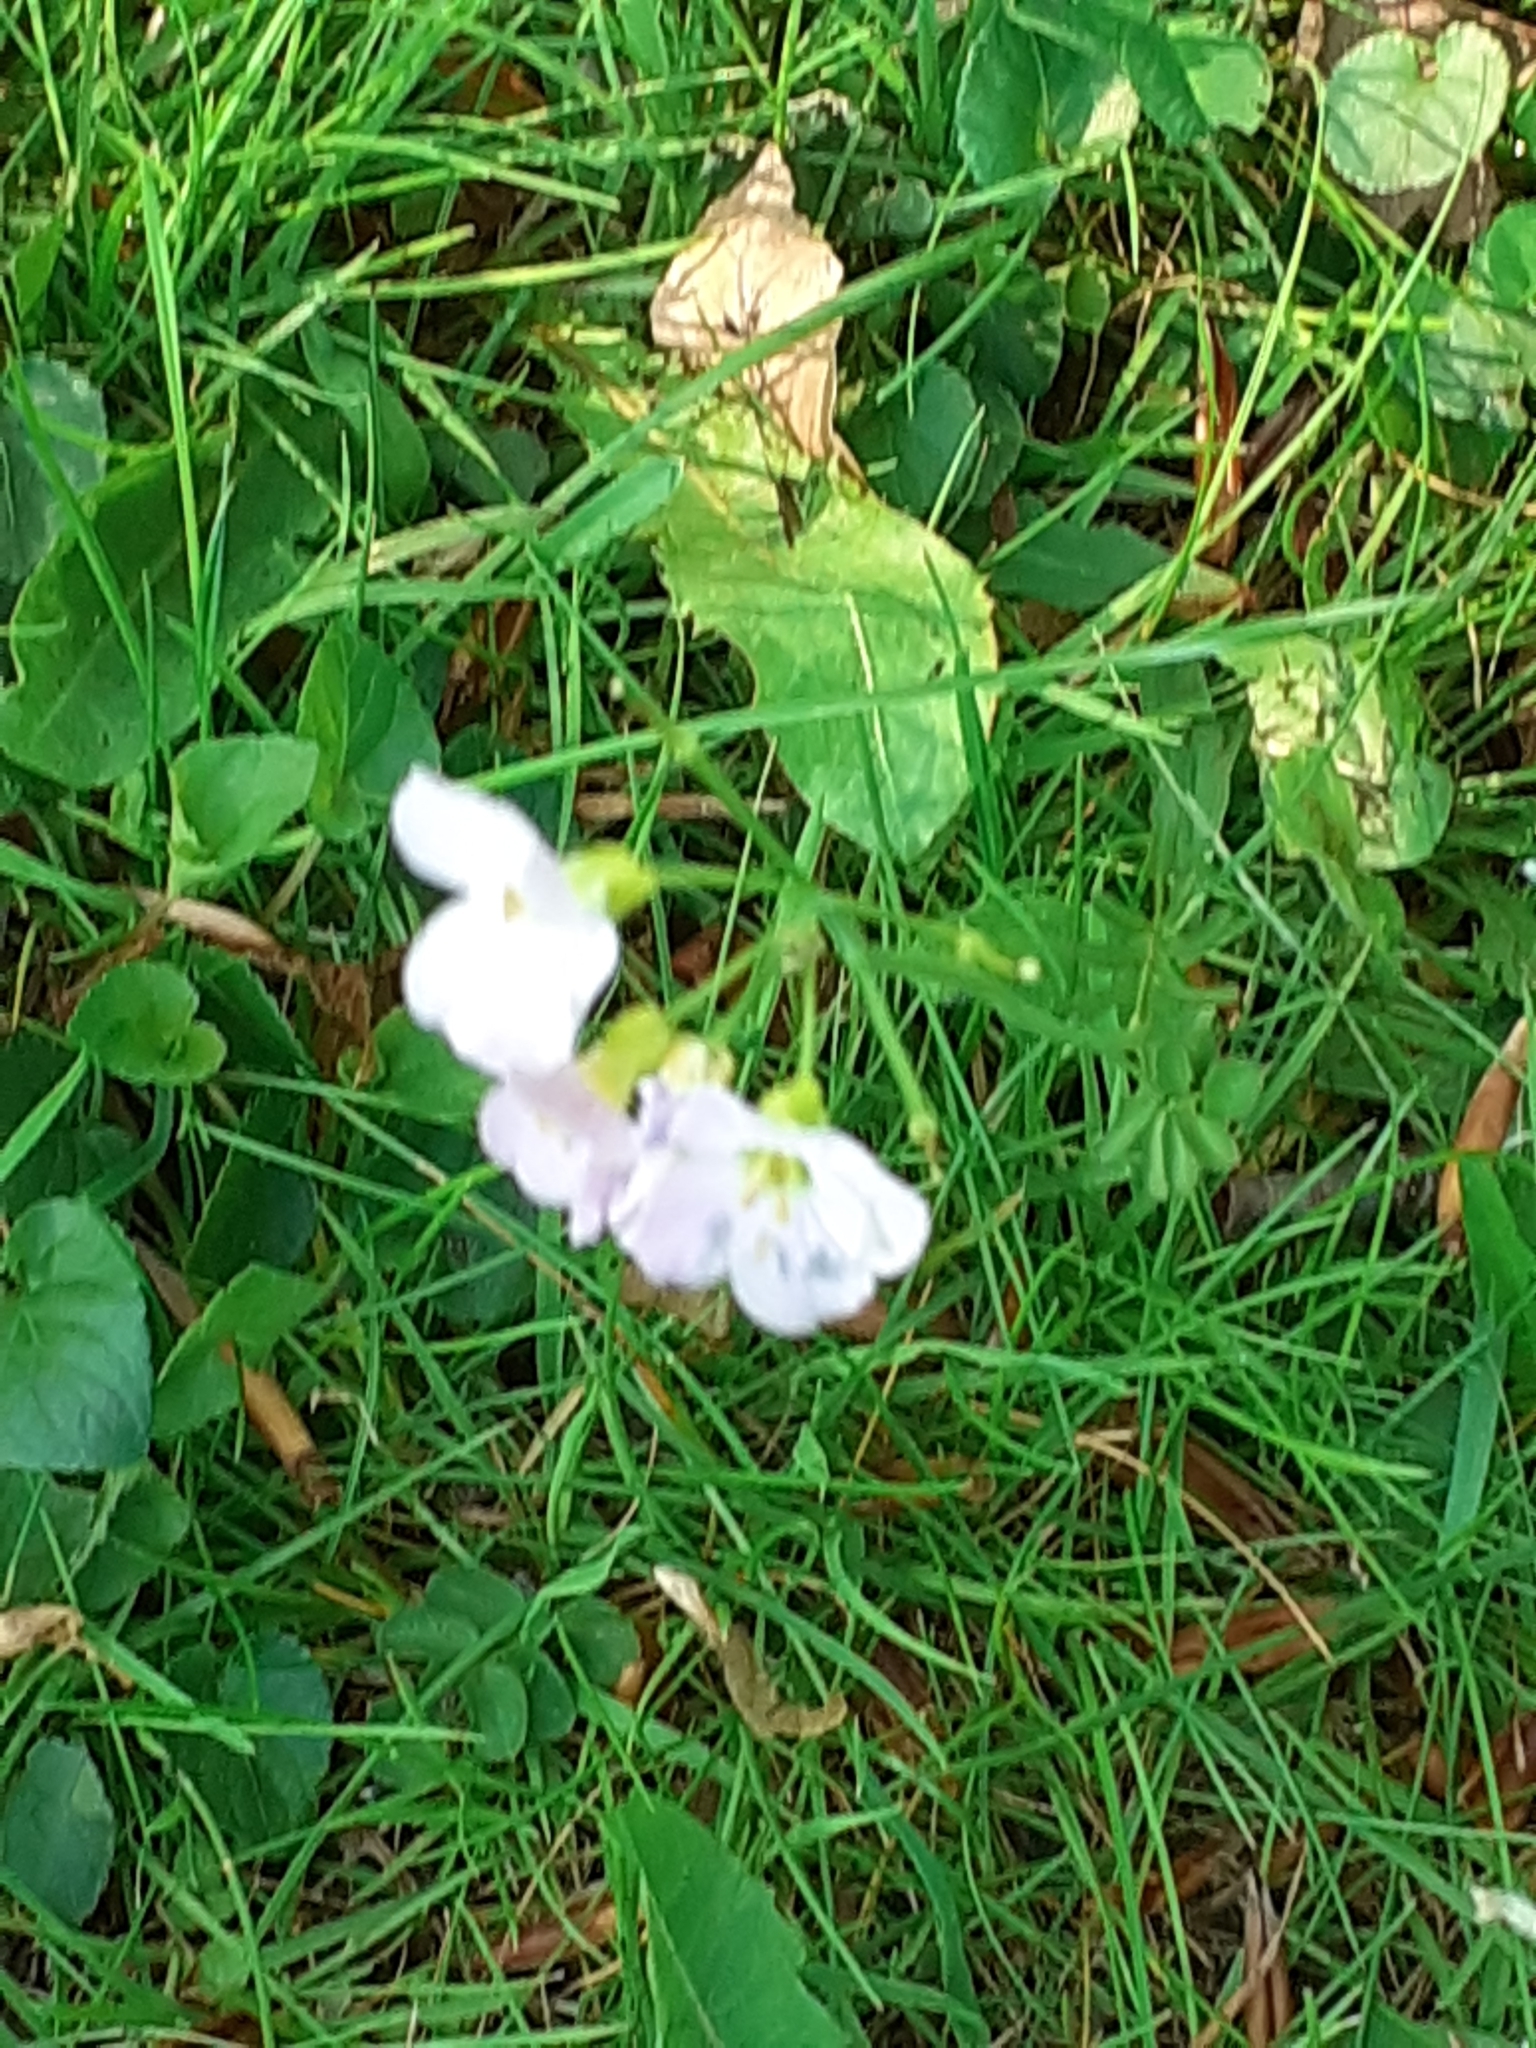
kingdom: Plantae
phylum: Tracheophyta
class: Magnoliopsida
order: Brassicales
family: Brassicaceae
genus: Cardamine
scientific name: Cardamine pratensis
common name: Cuckoo flower
